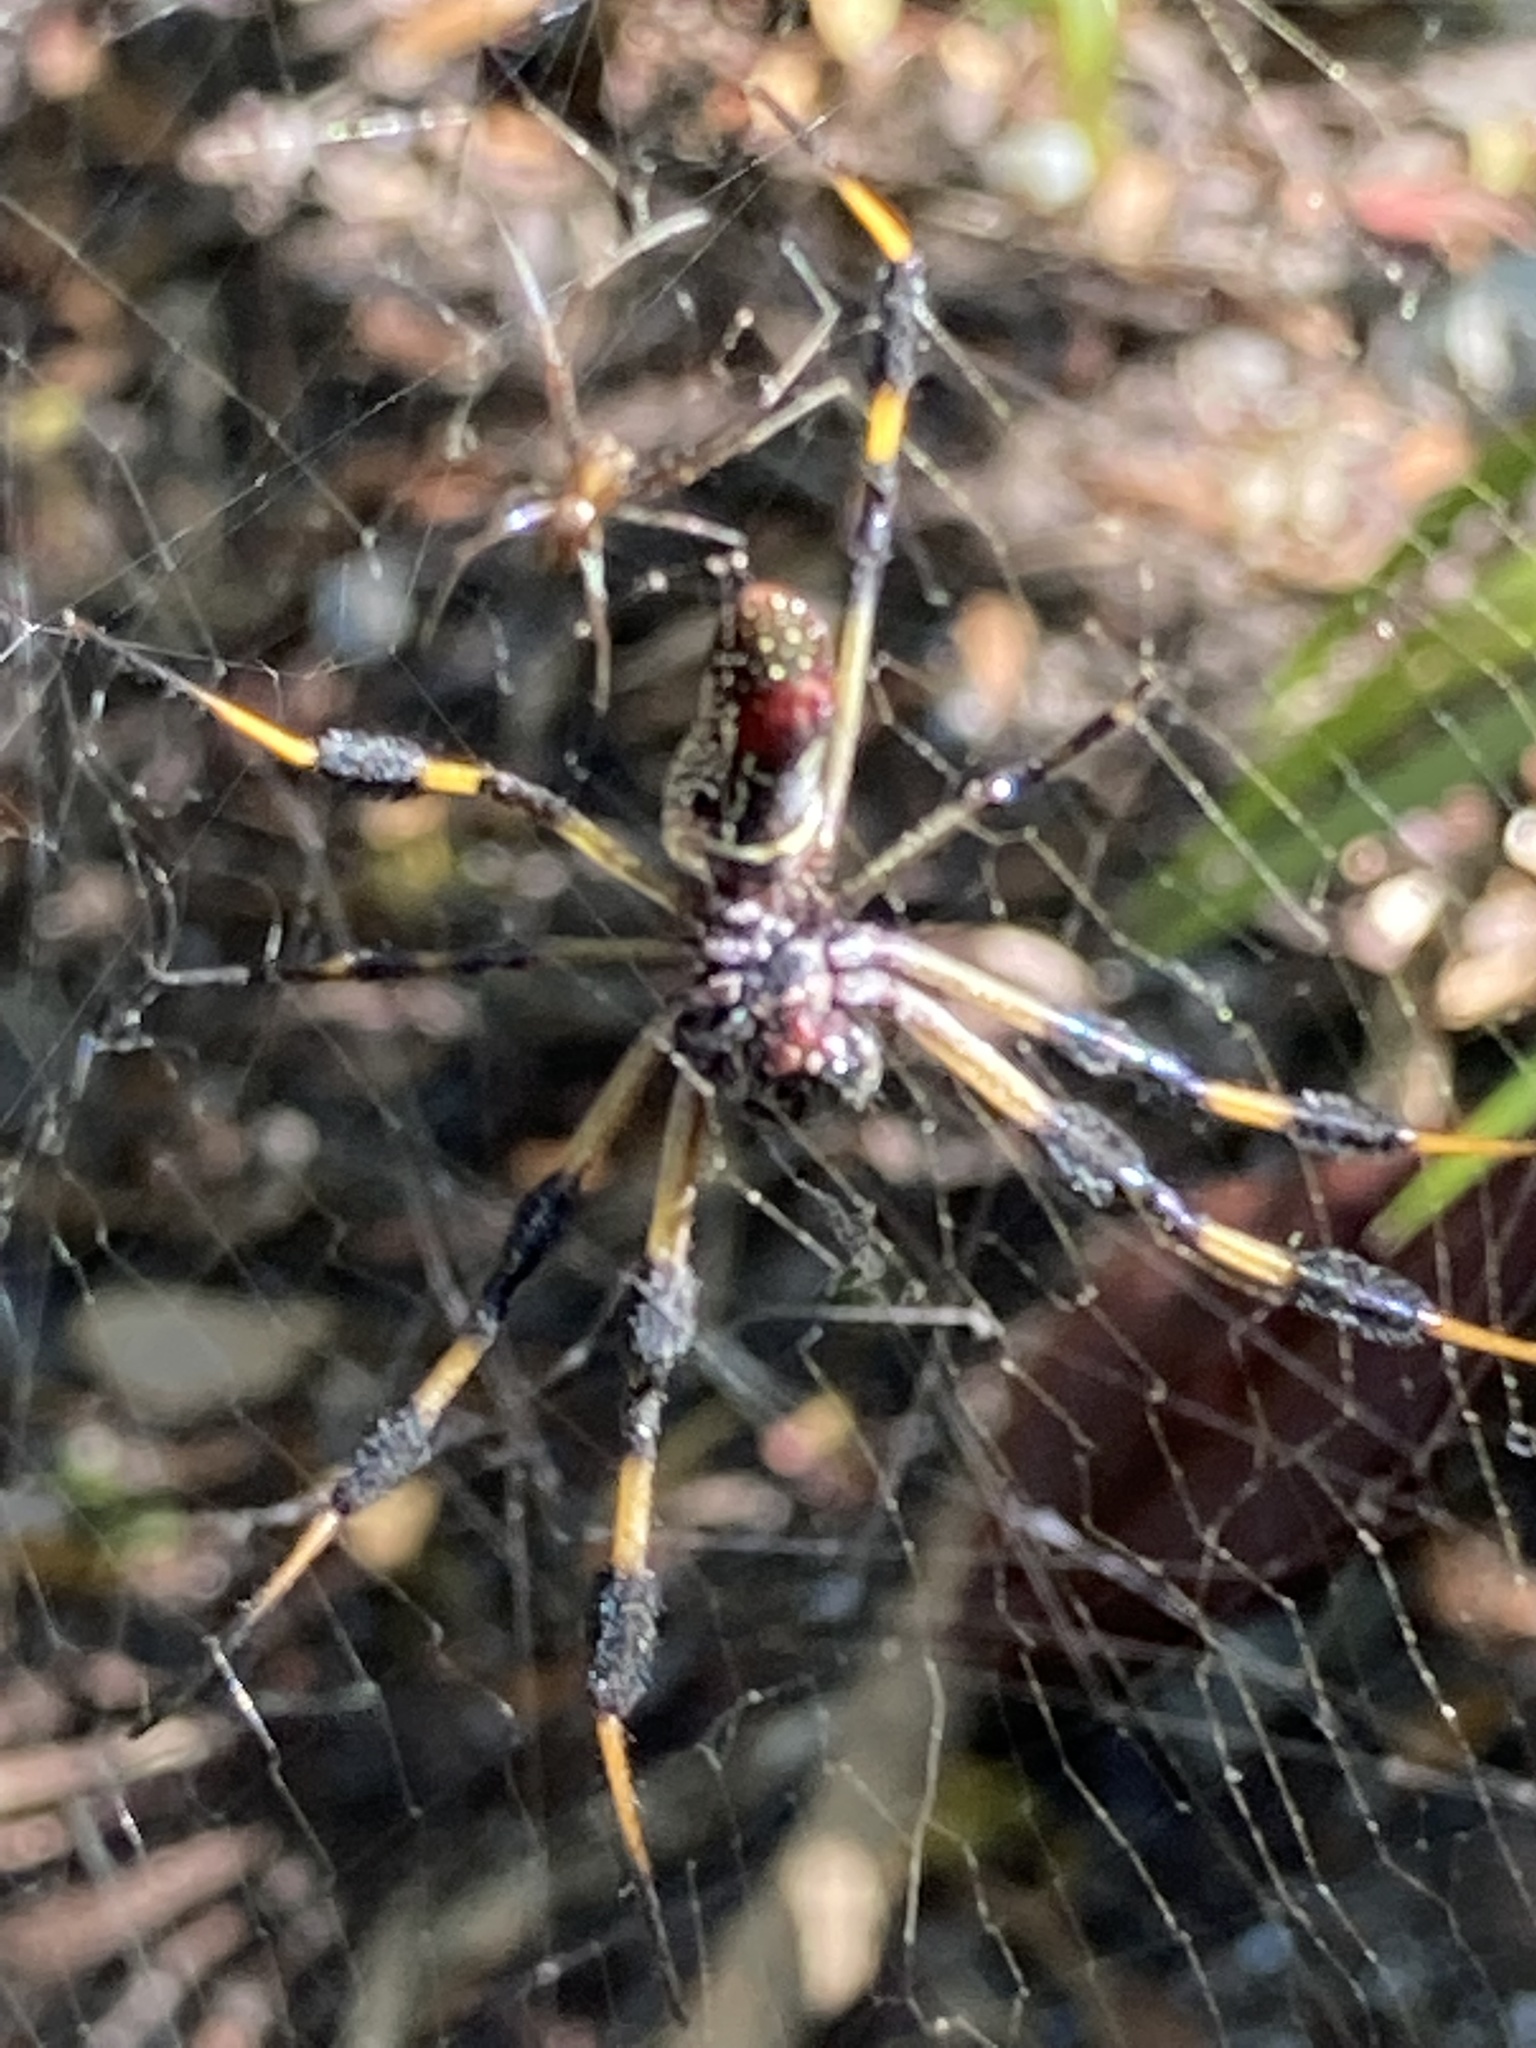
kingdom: Animalia
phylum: Arthropoda
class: Arachnida
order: Araneae
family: Araneidae
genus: Trichonephila
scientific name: Trichonephila clavipes
